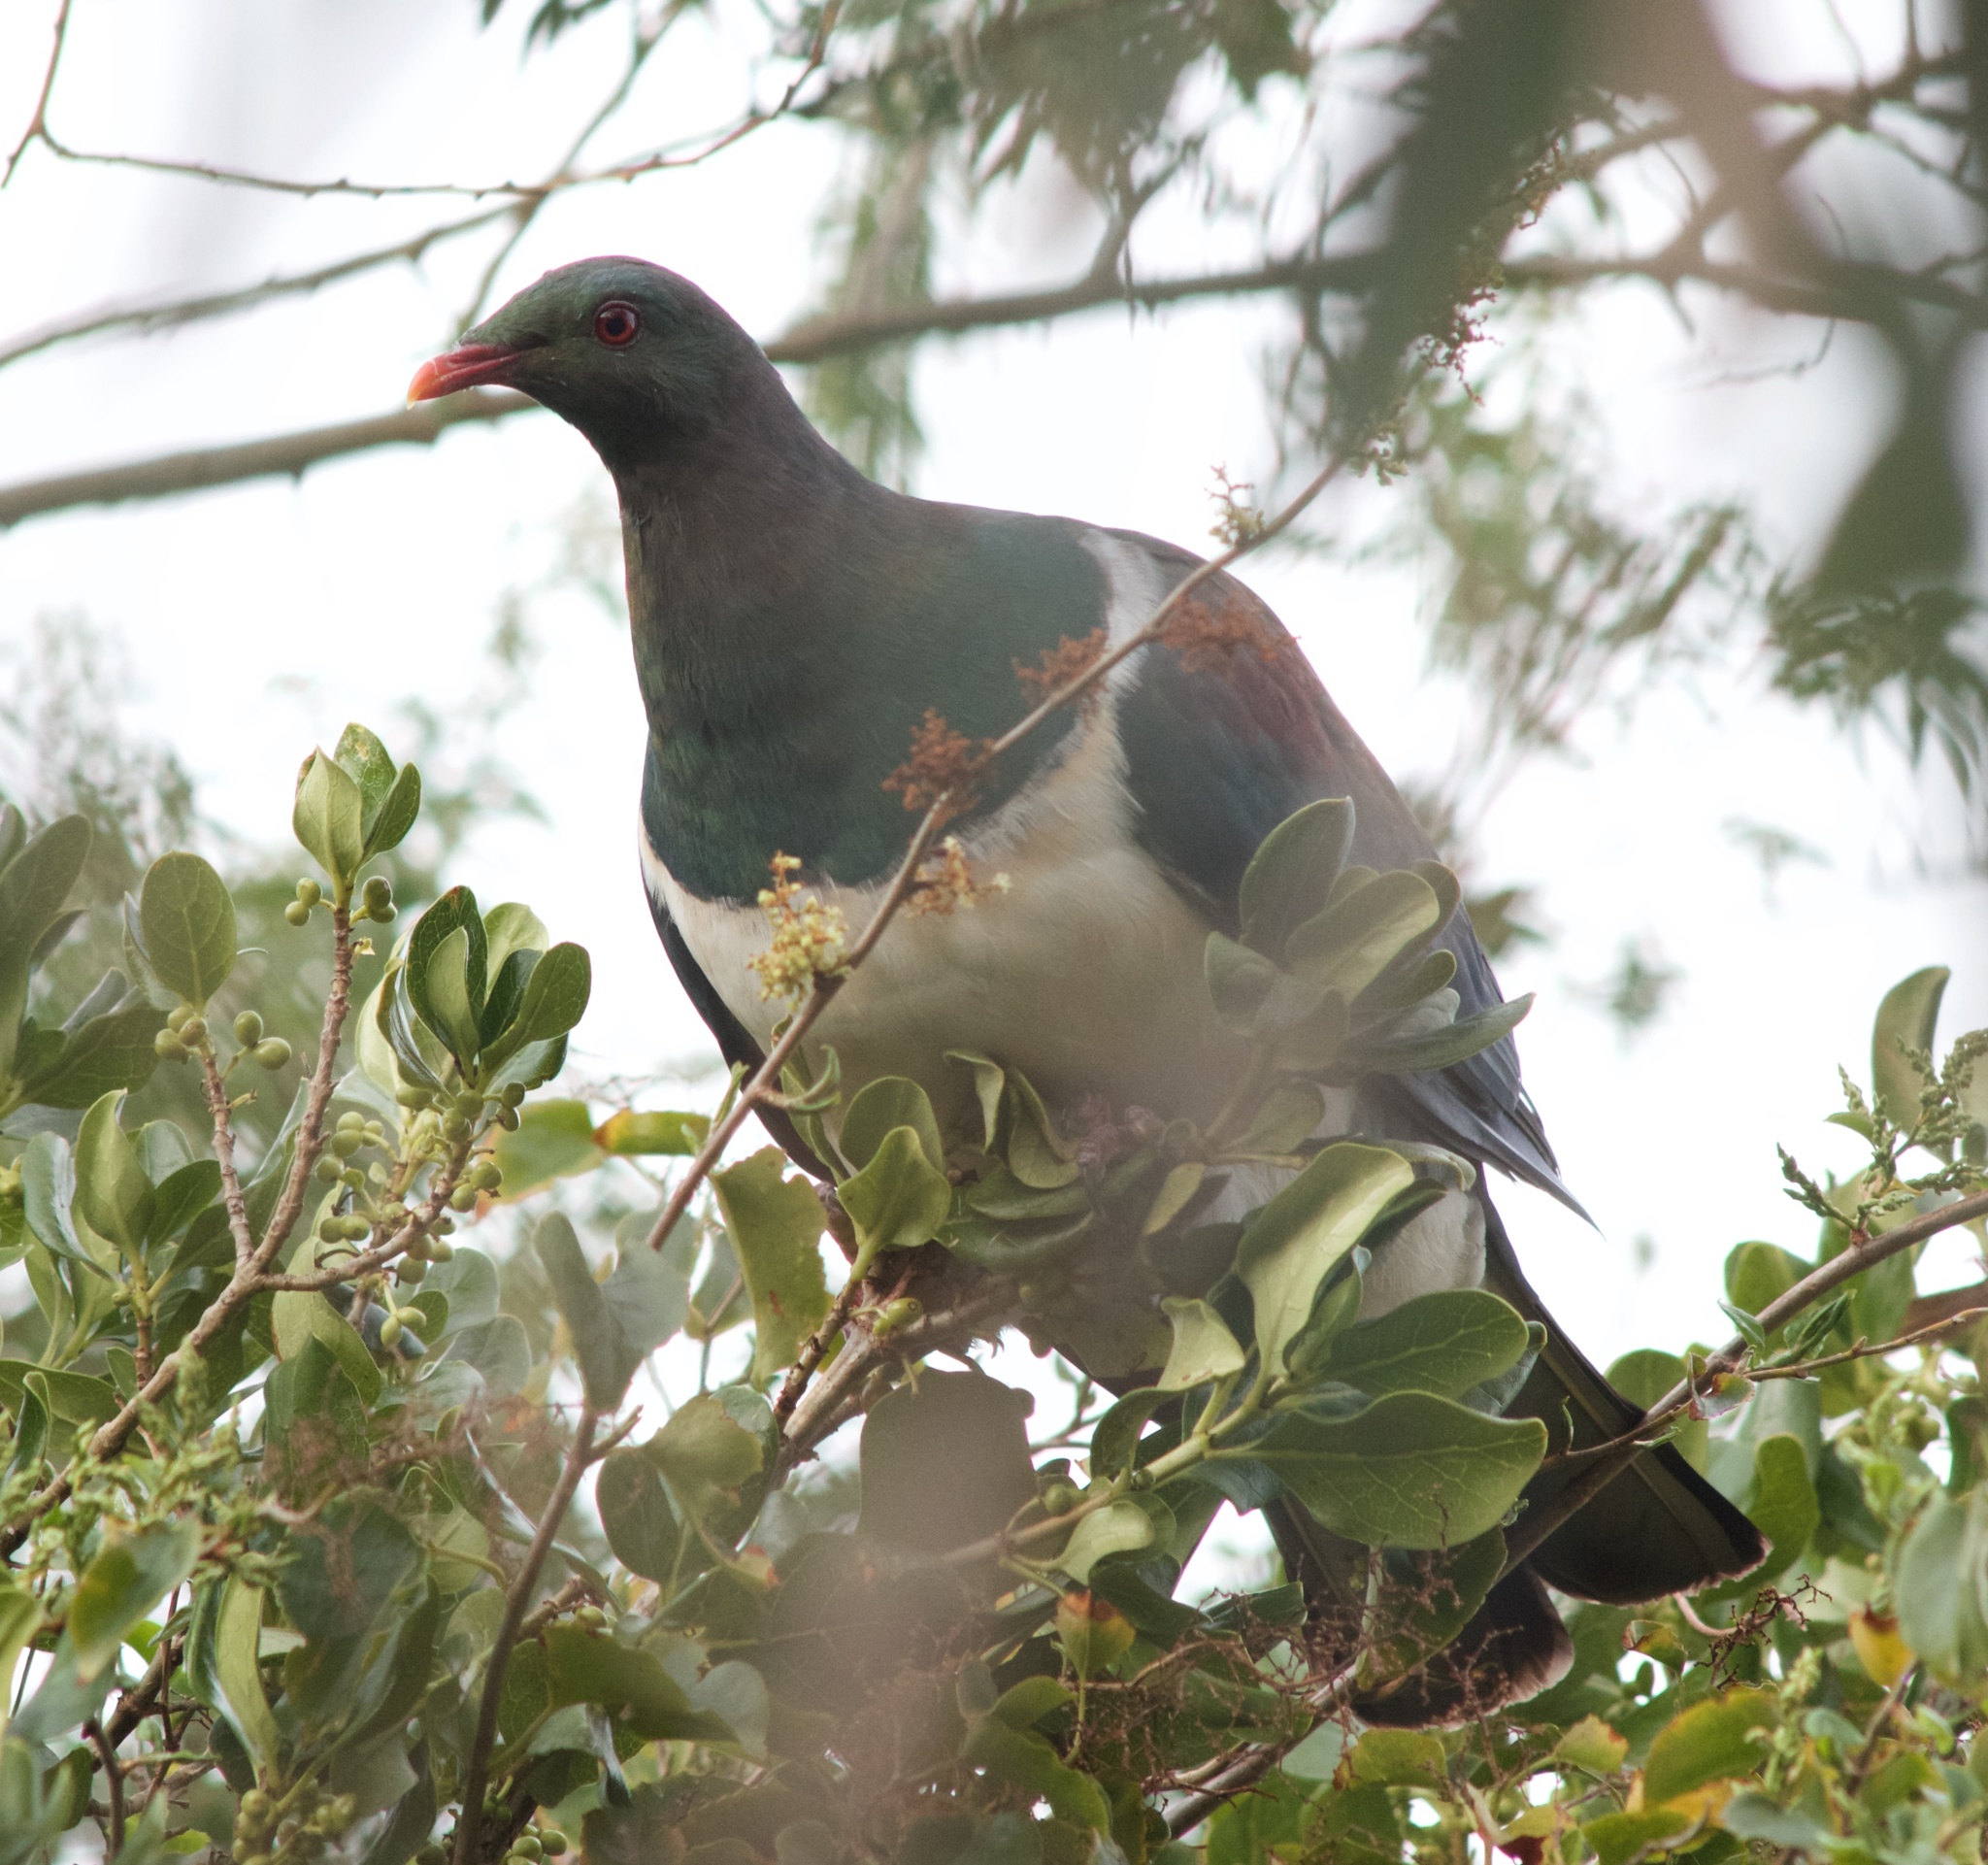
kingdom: Animalia
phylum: Chordata
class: Aves
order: Columbiformes
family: Columbidae
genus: Hemiphaga
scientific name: Hemiphaga novaeseelandiae
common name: New zealand pigeon
